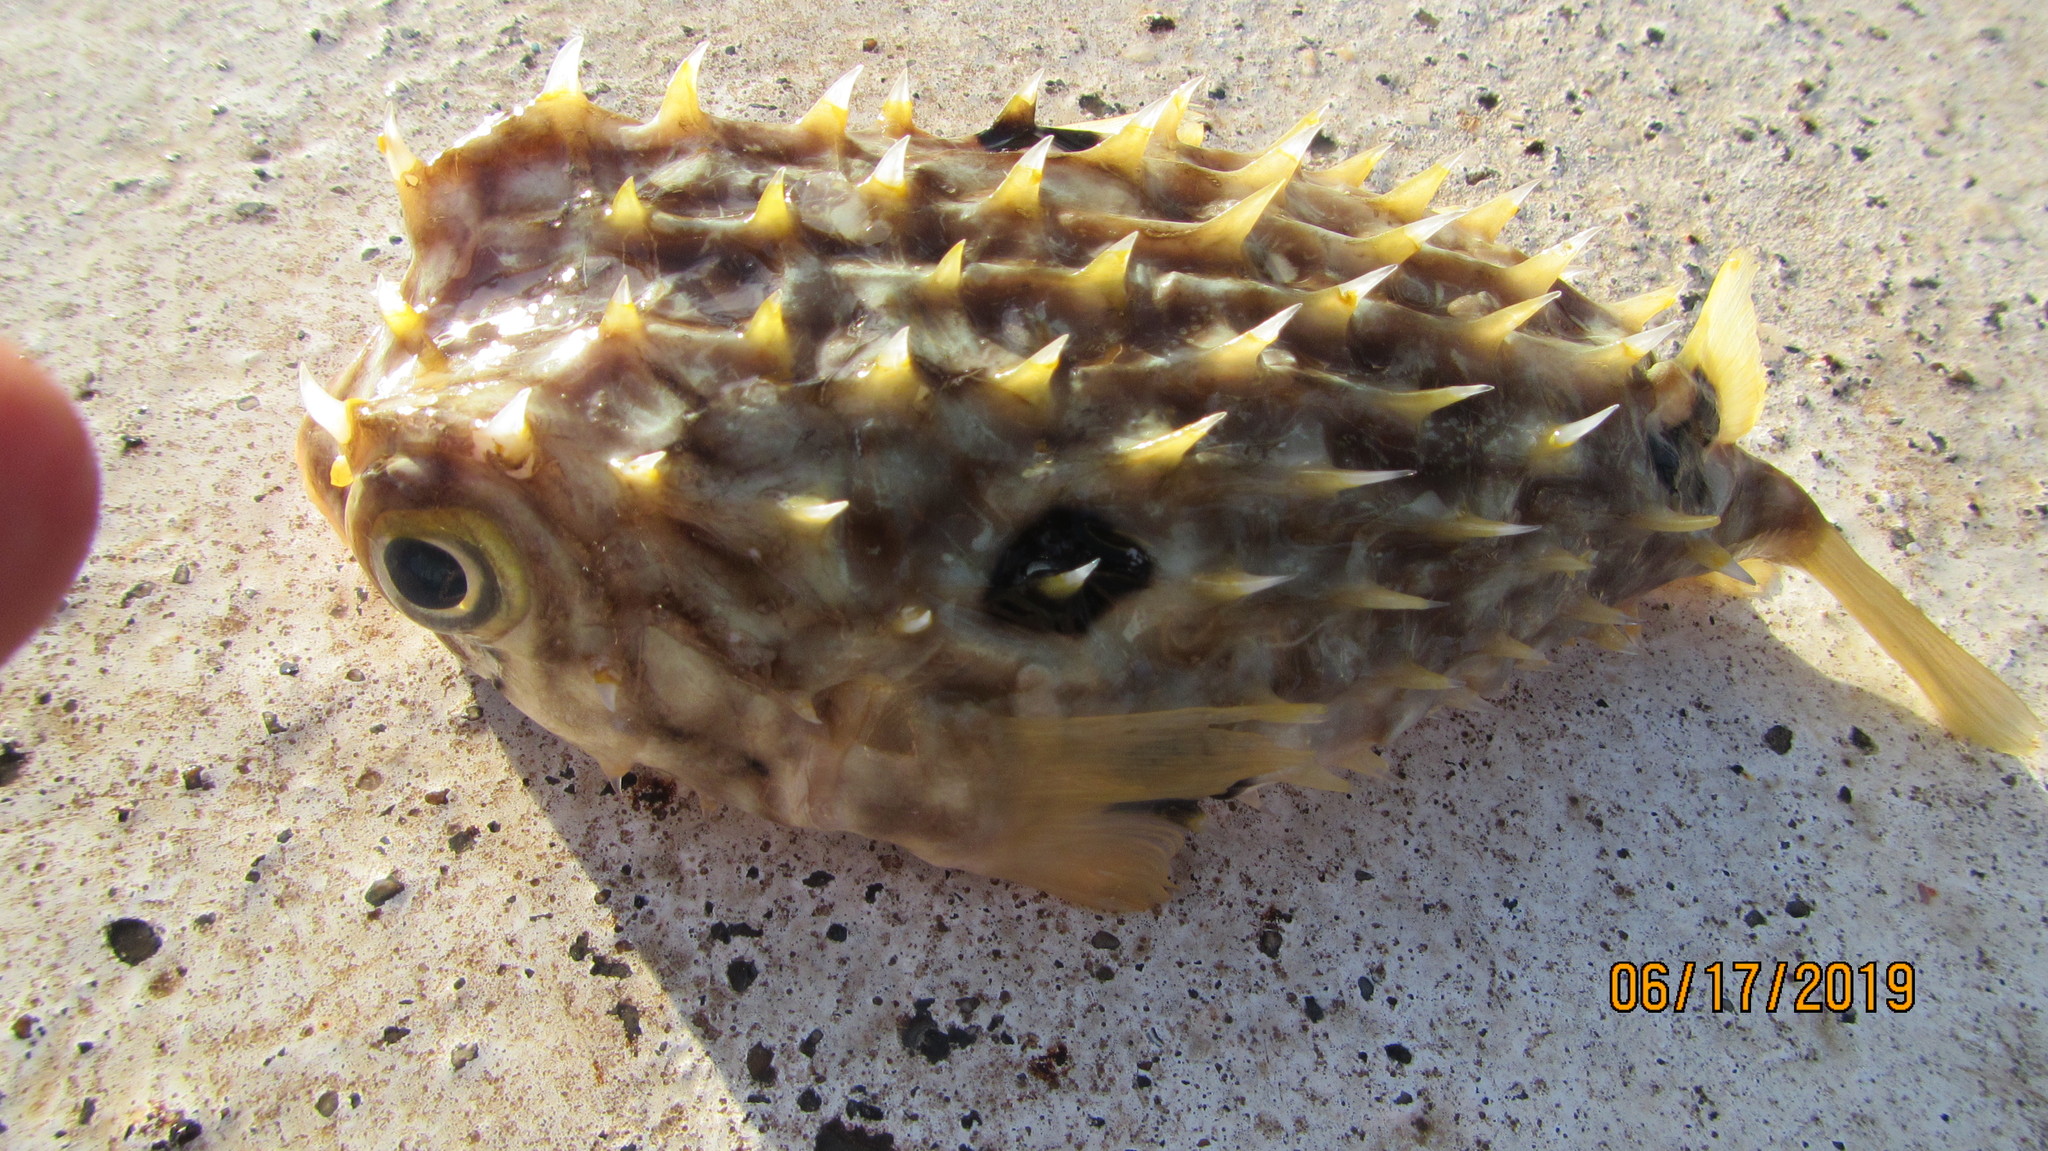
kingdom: Animalia
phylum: Chordata
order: Tetraodontiformes
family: Diodontidae
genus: Chilomycterus
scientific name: Chilomycterus antillarum
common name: Web burrfish
